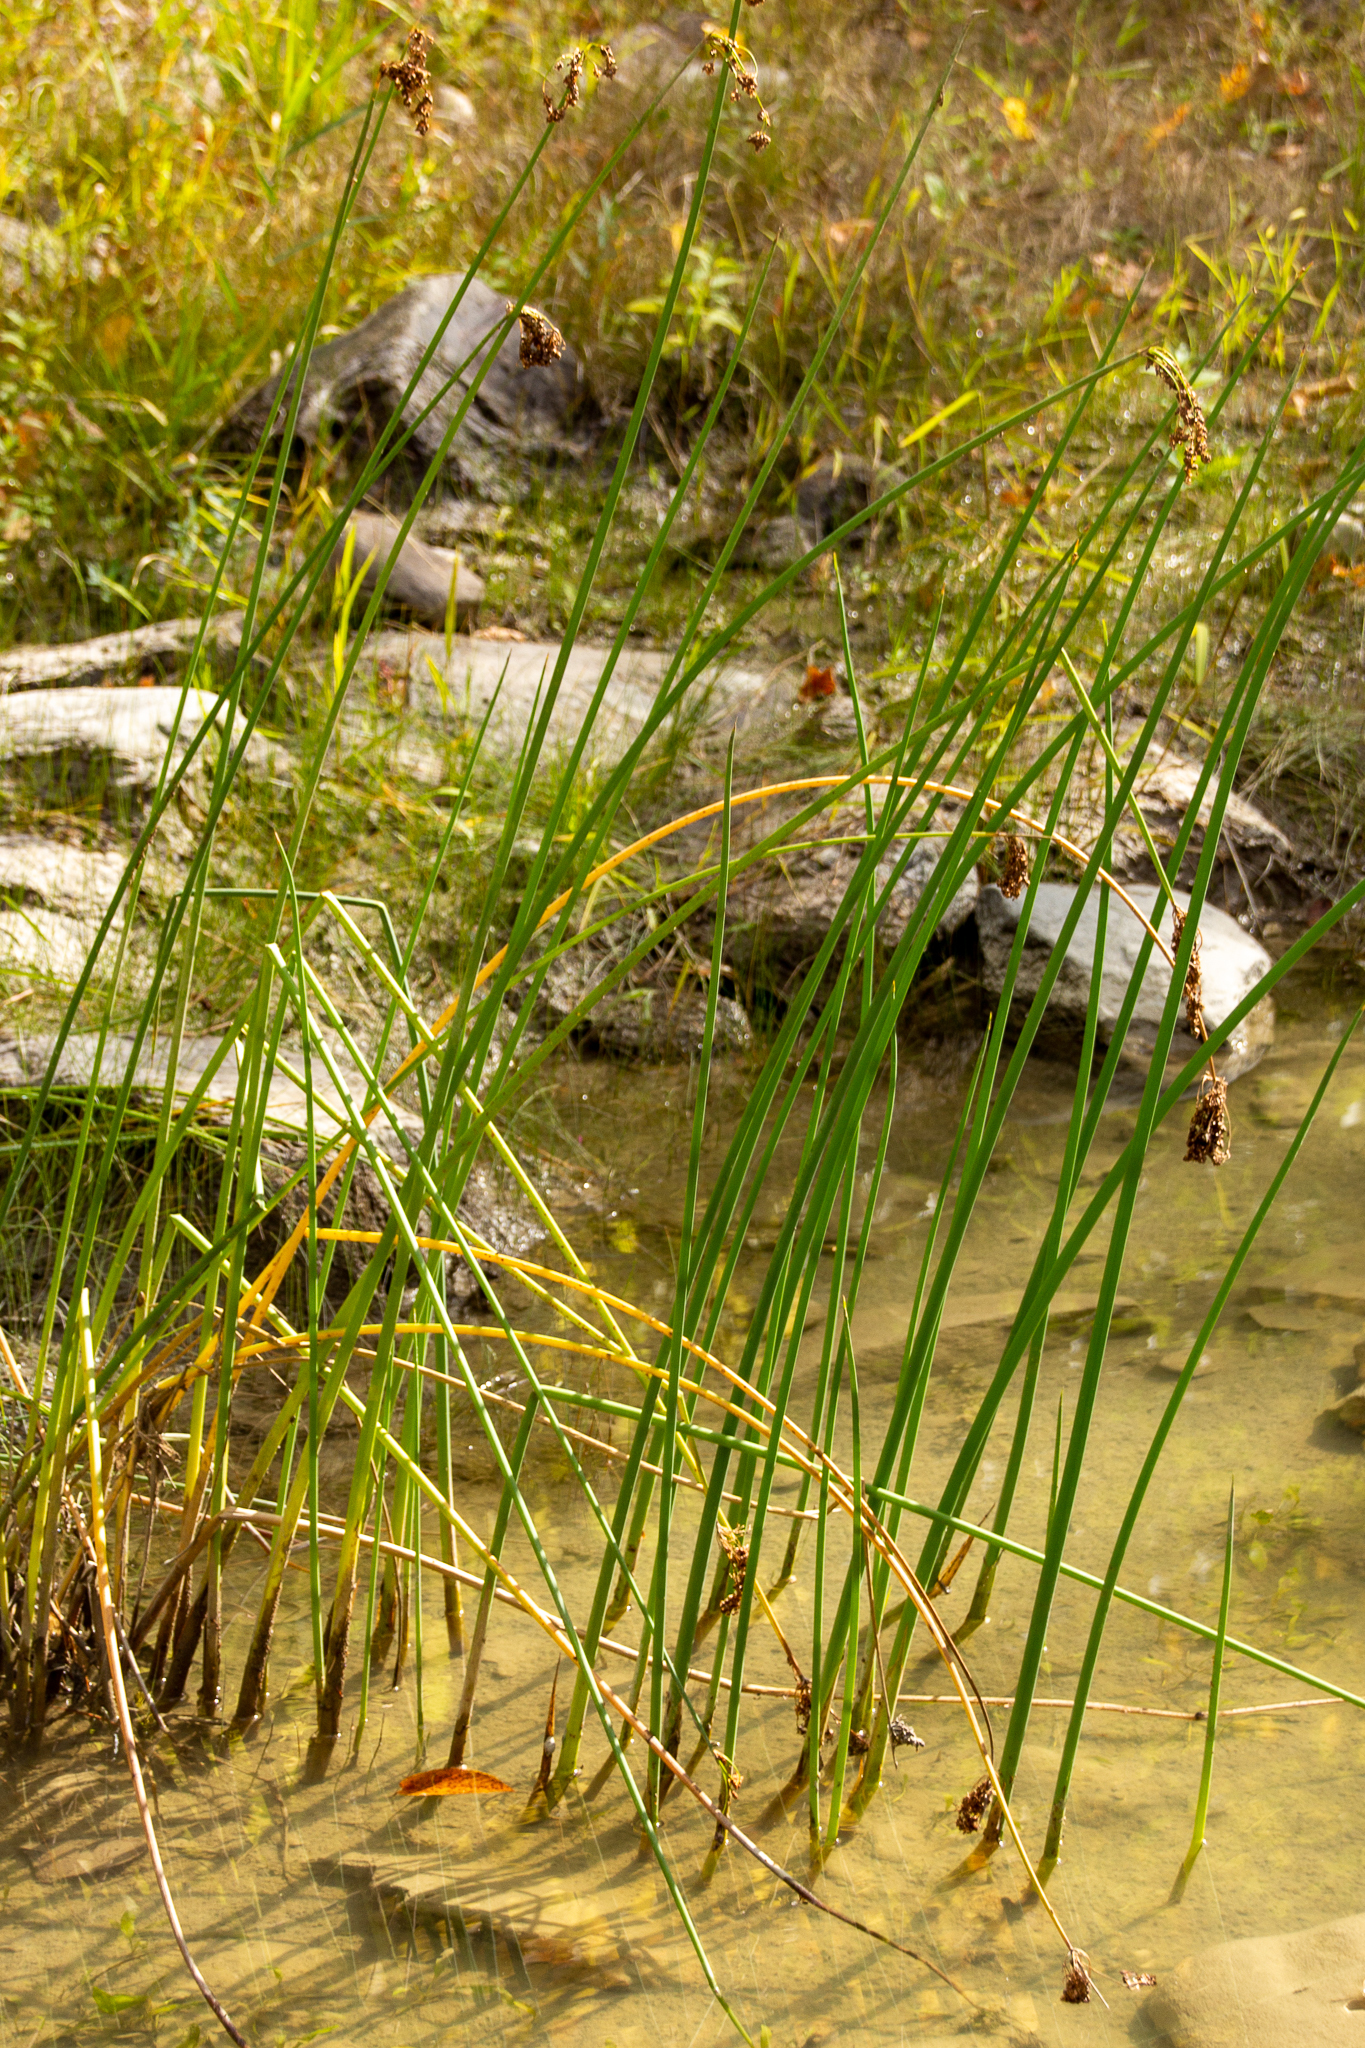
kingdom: Plantae
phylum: Tracheophyta
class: Liliopsida
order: Poales
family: Cyperaceae
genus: Schoenoplectus
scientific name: Schoenoplectus tabernaemontani
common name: Grey club-rush
